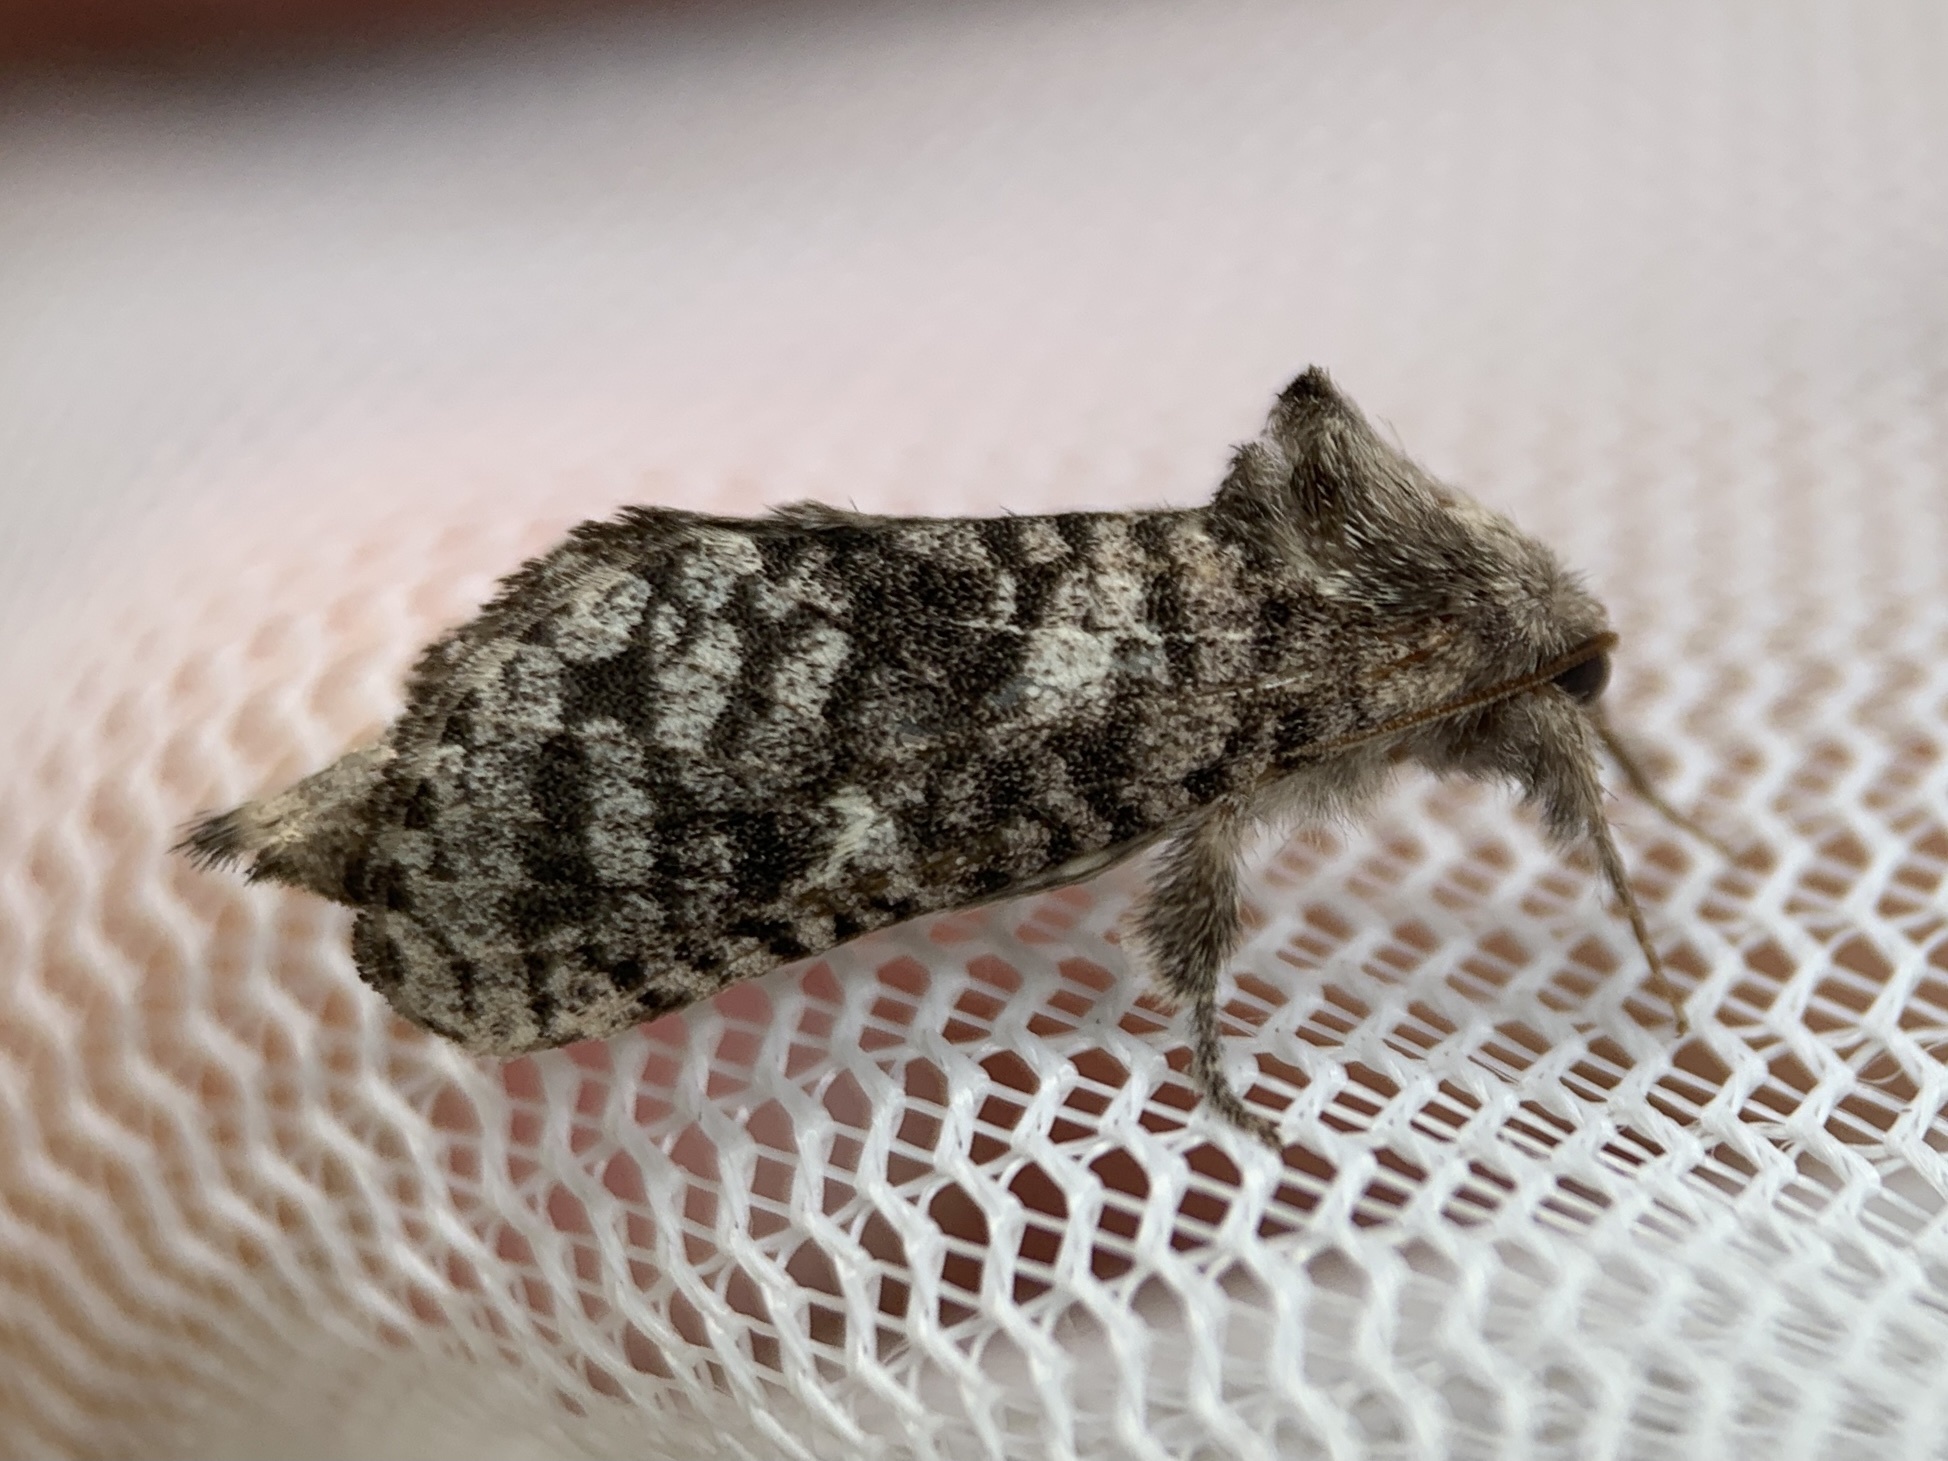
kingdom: Animalia
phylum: Arthropoda
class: Insecta
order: Lepidoptera
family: Cossidae
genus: Givira
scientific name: Givira francesca
